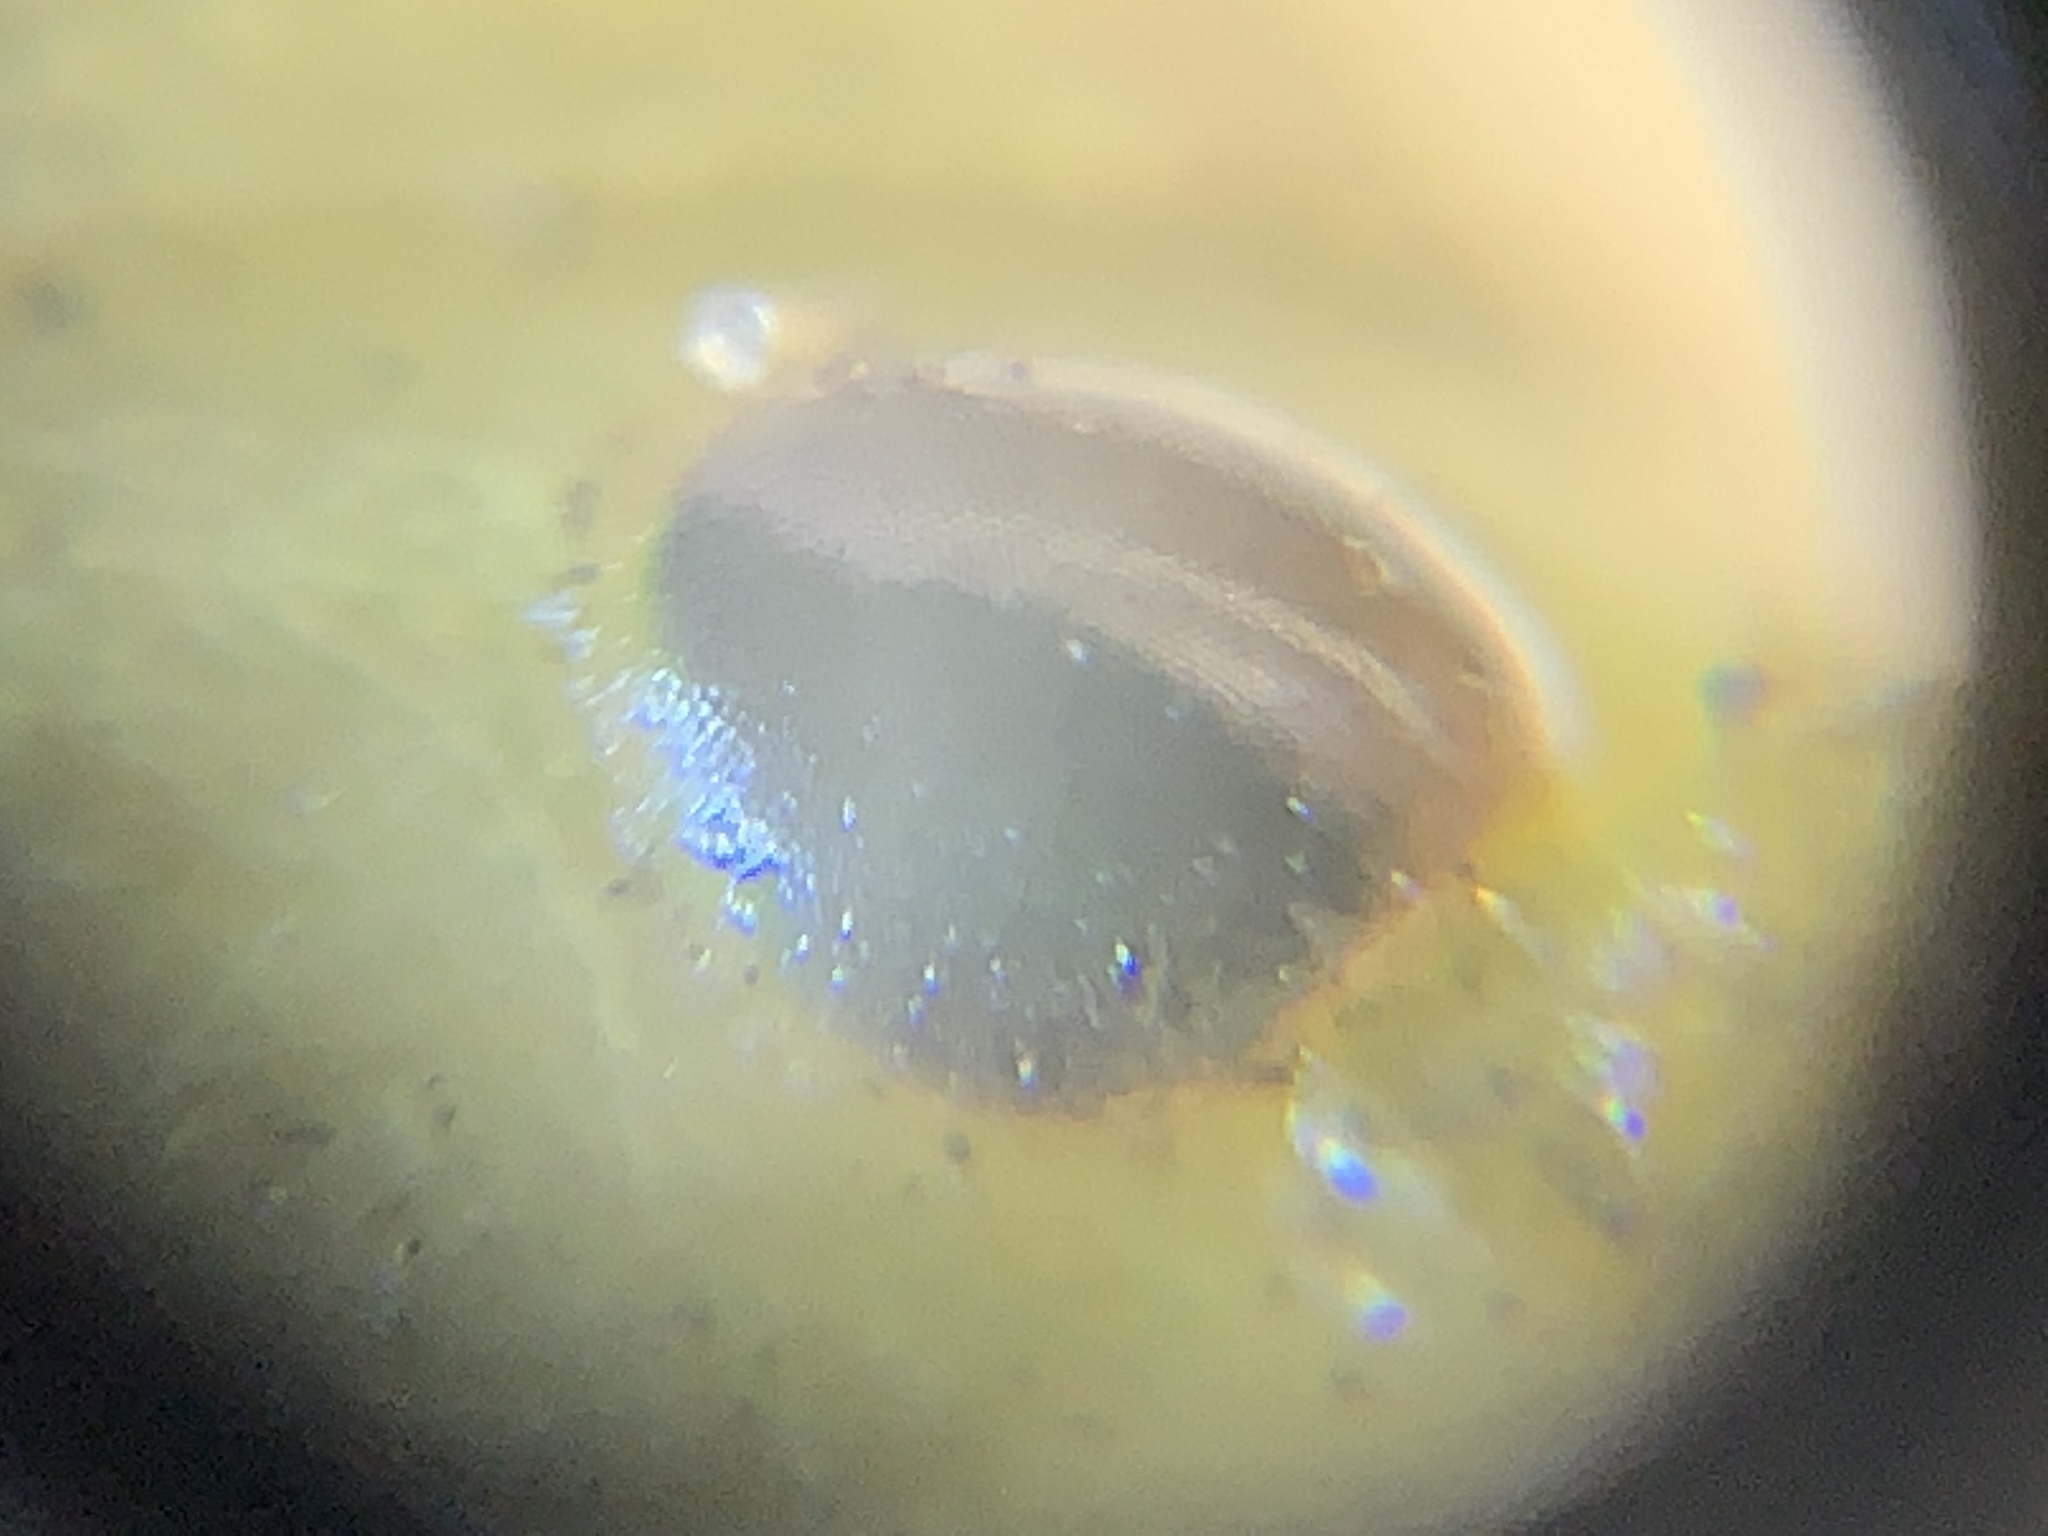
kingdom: Animalia
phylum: Arthropoda
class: Insecta
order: Orthoptera
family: Tettigoniidae
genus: Neoconocephalus
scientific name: Neoconocephalus triops
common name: Broad-tipped conehead
